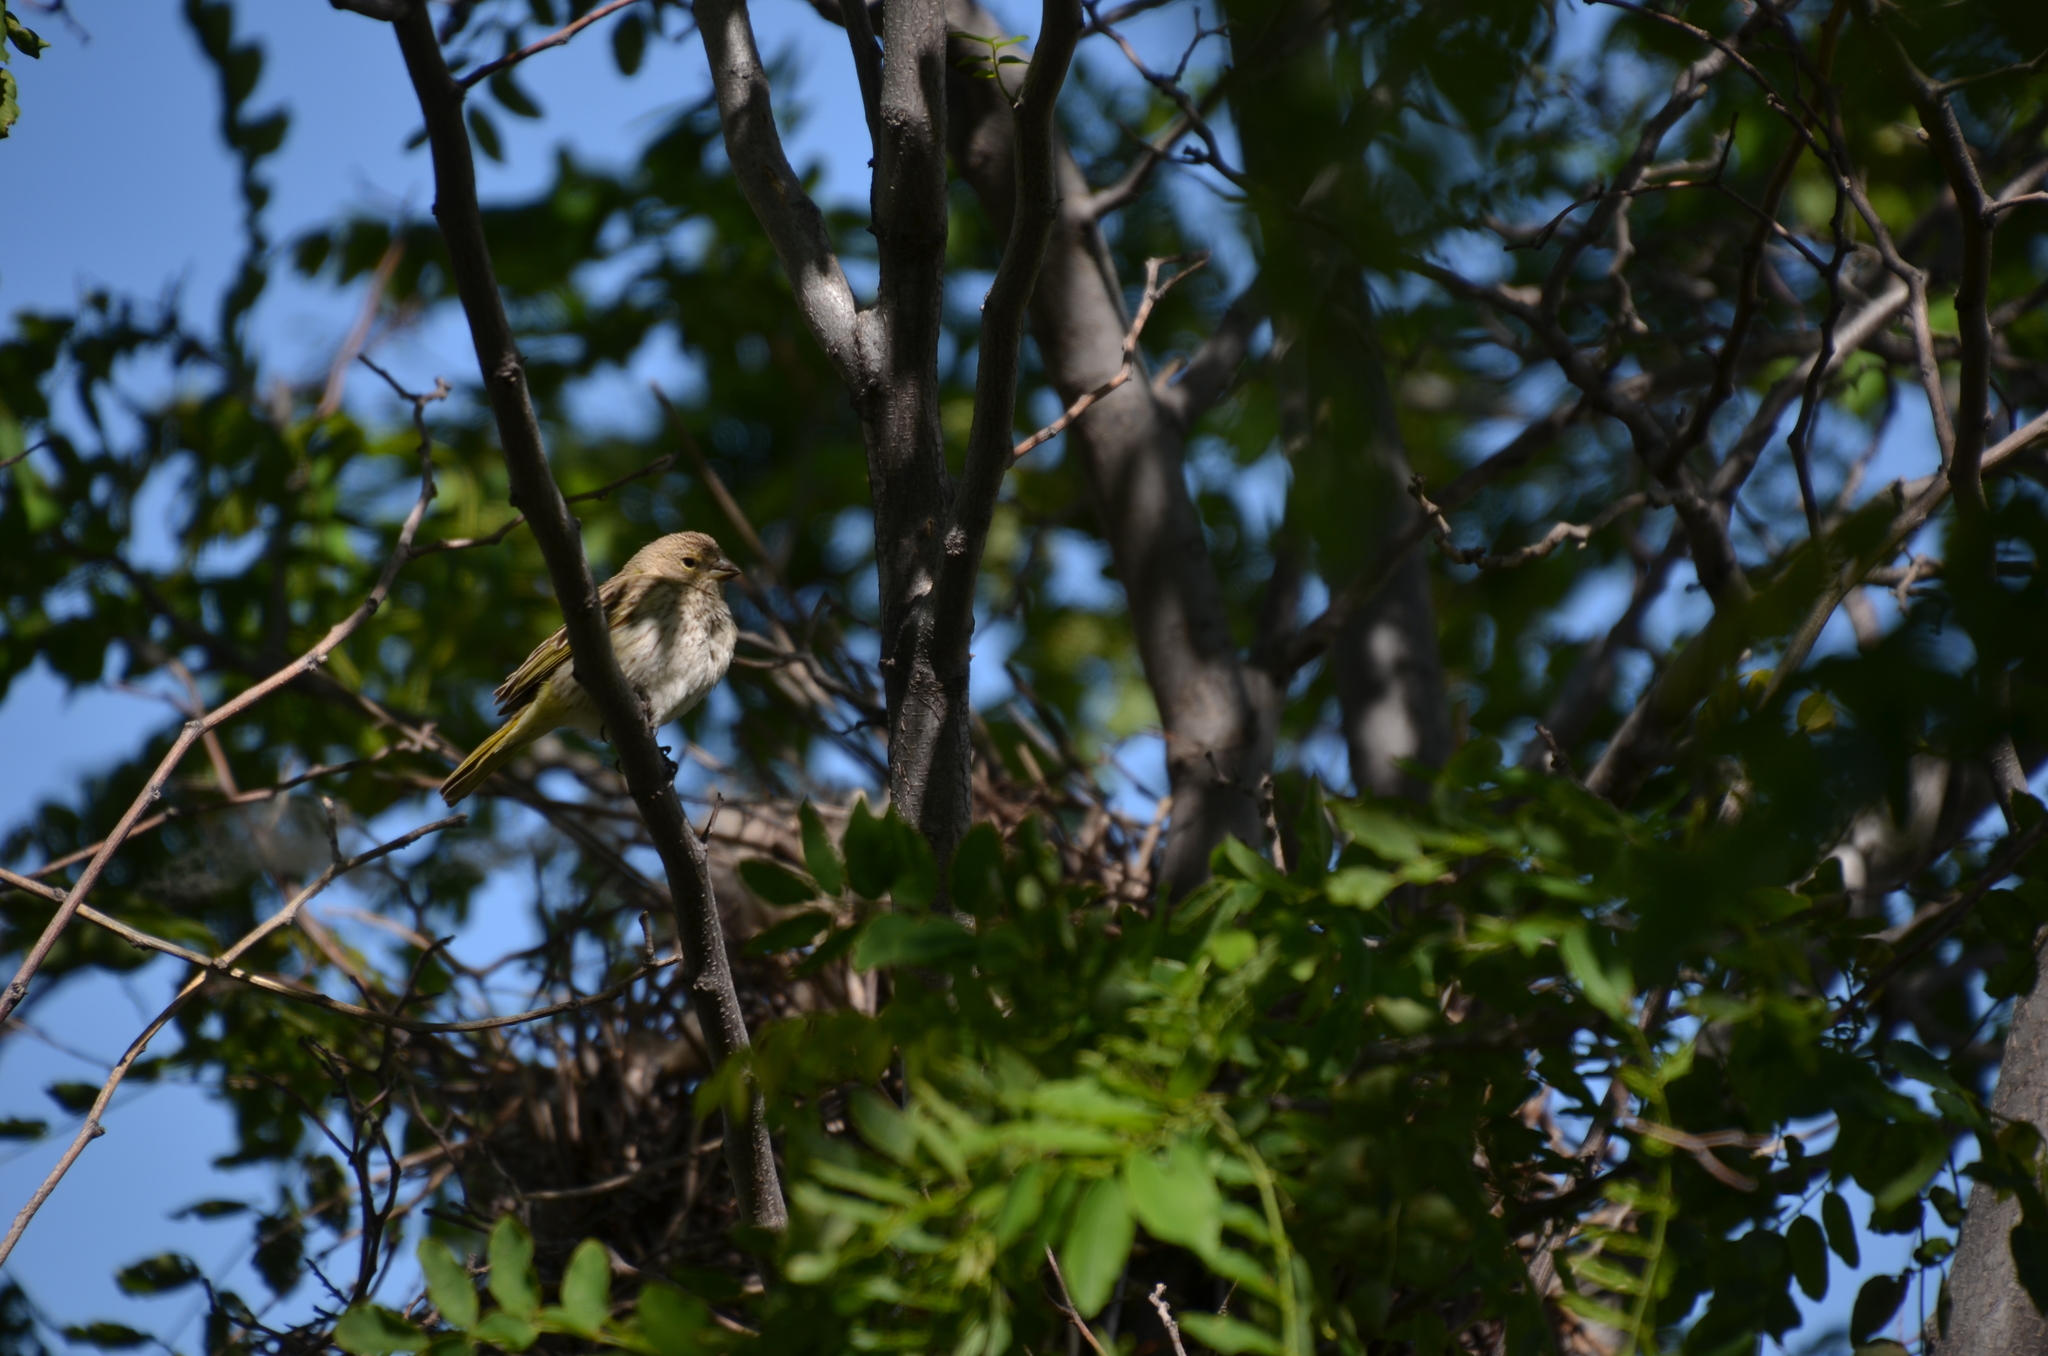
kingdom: Animalia
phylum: Chordata
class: Aves
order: Passeriformes
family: Thraupidae
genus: Sicalis
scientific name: Sicalis flaveola
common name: Saffron finch
